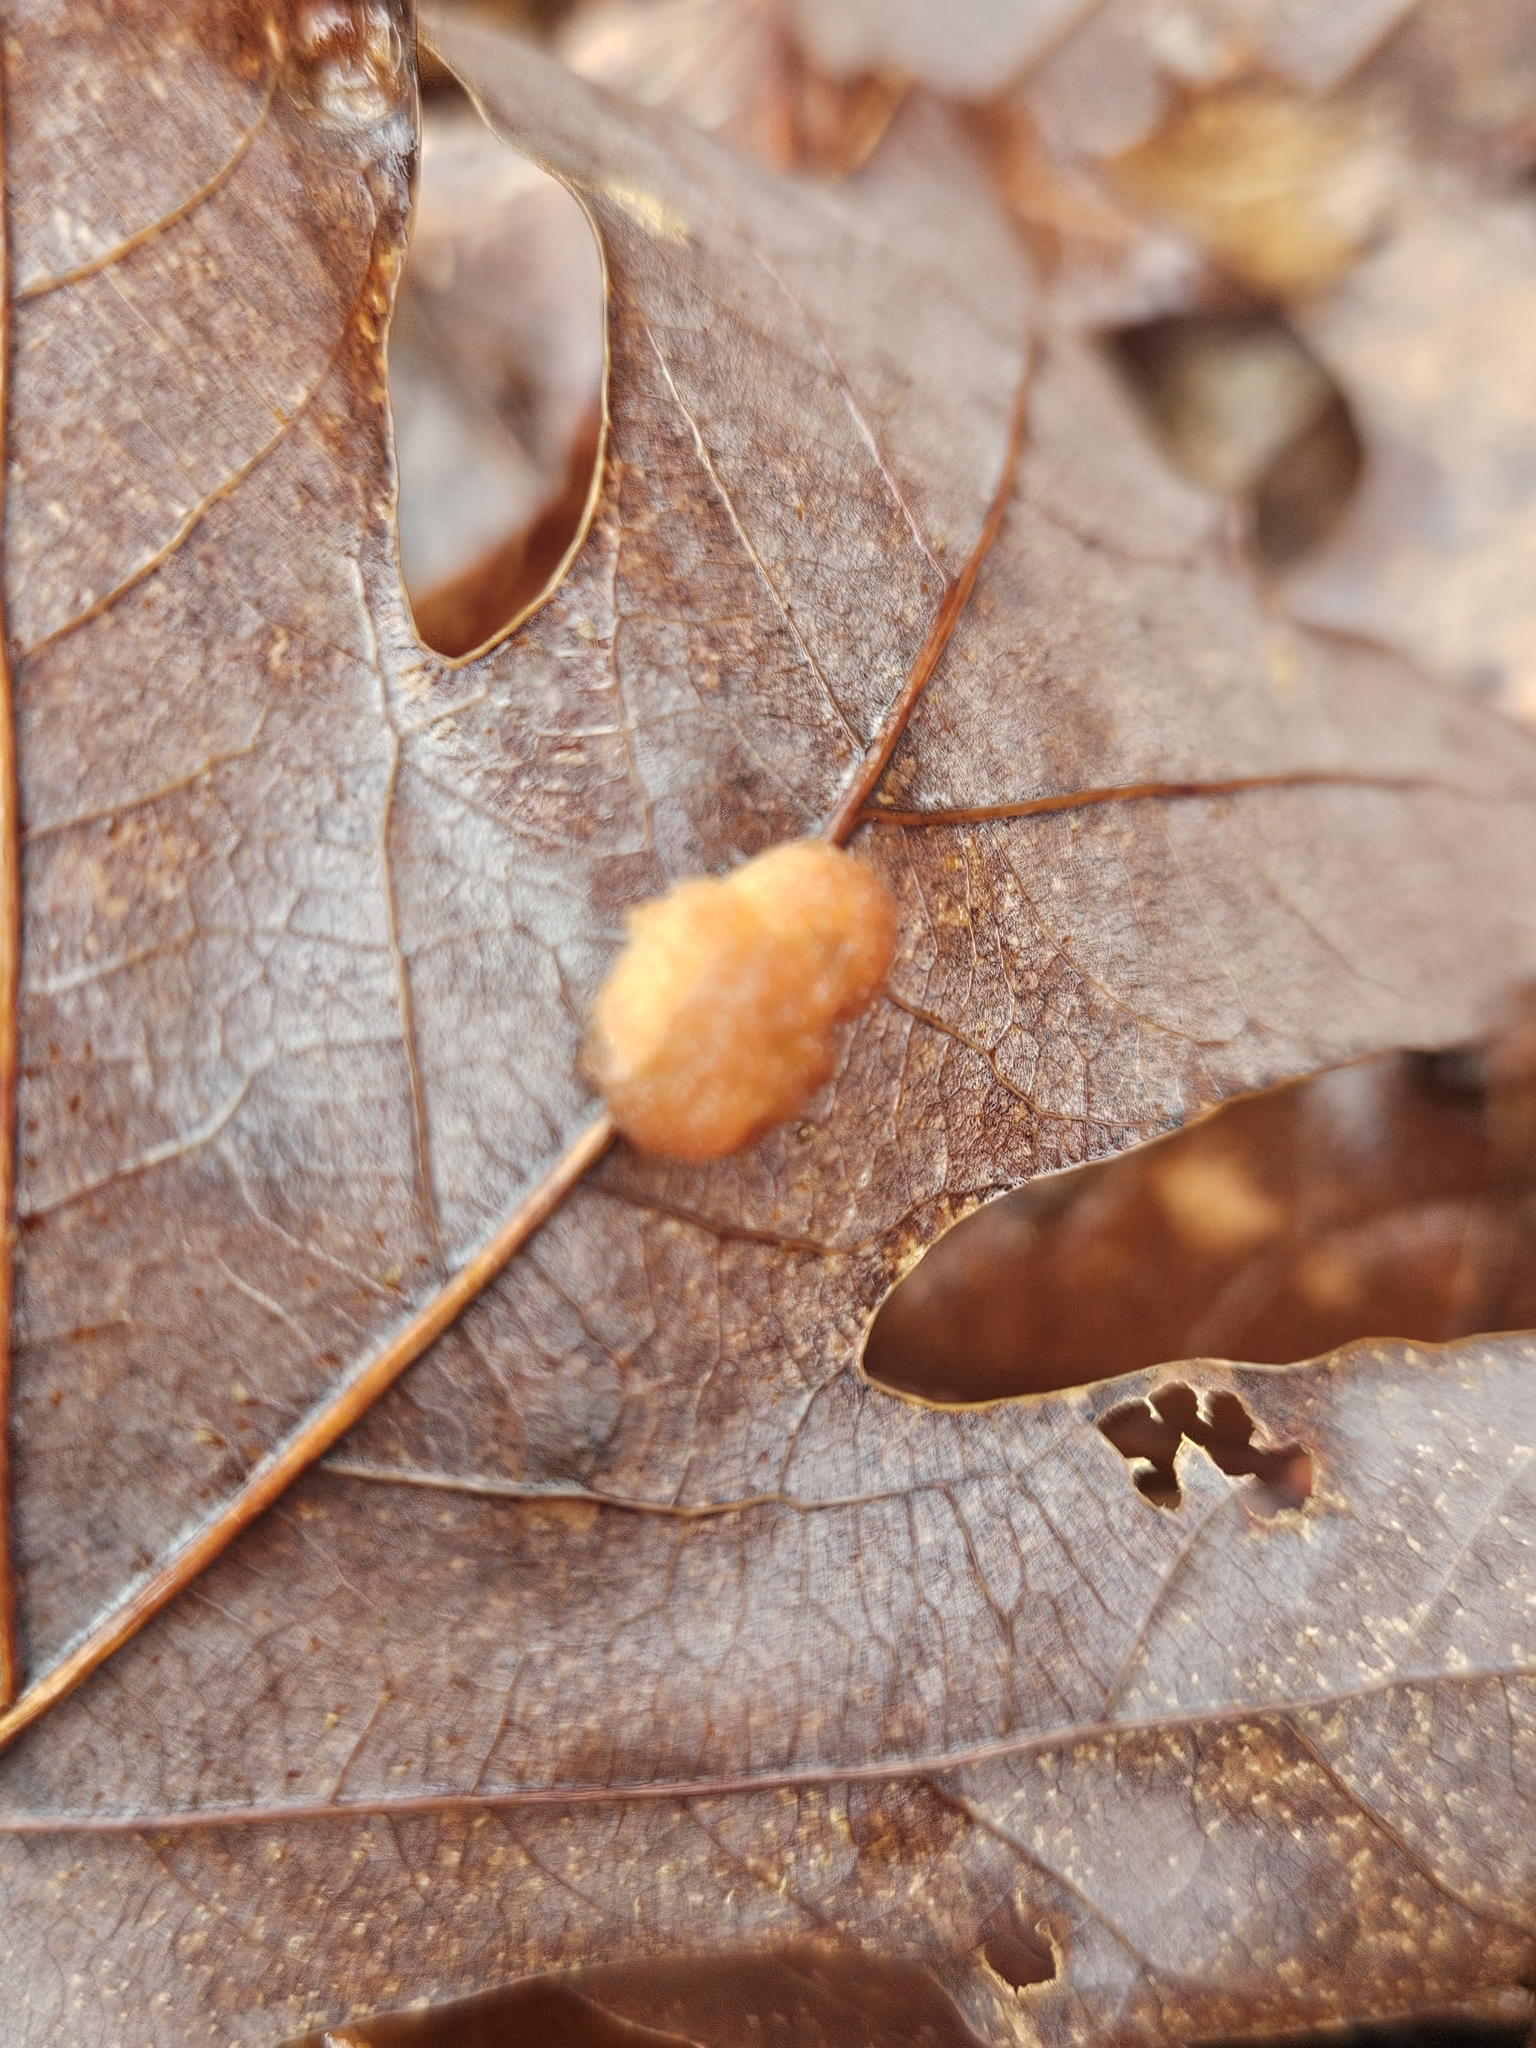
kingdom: Animalia
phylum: Arthropoda
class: Insecta
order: Hymenoptera
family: Cynipidae
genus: Andricus
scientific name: Andricus quercusflocci
